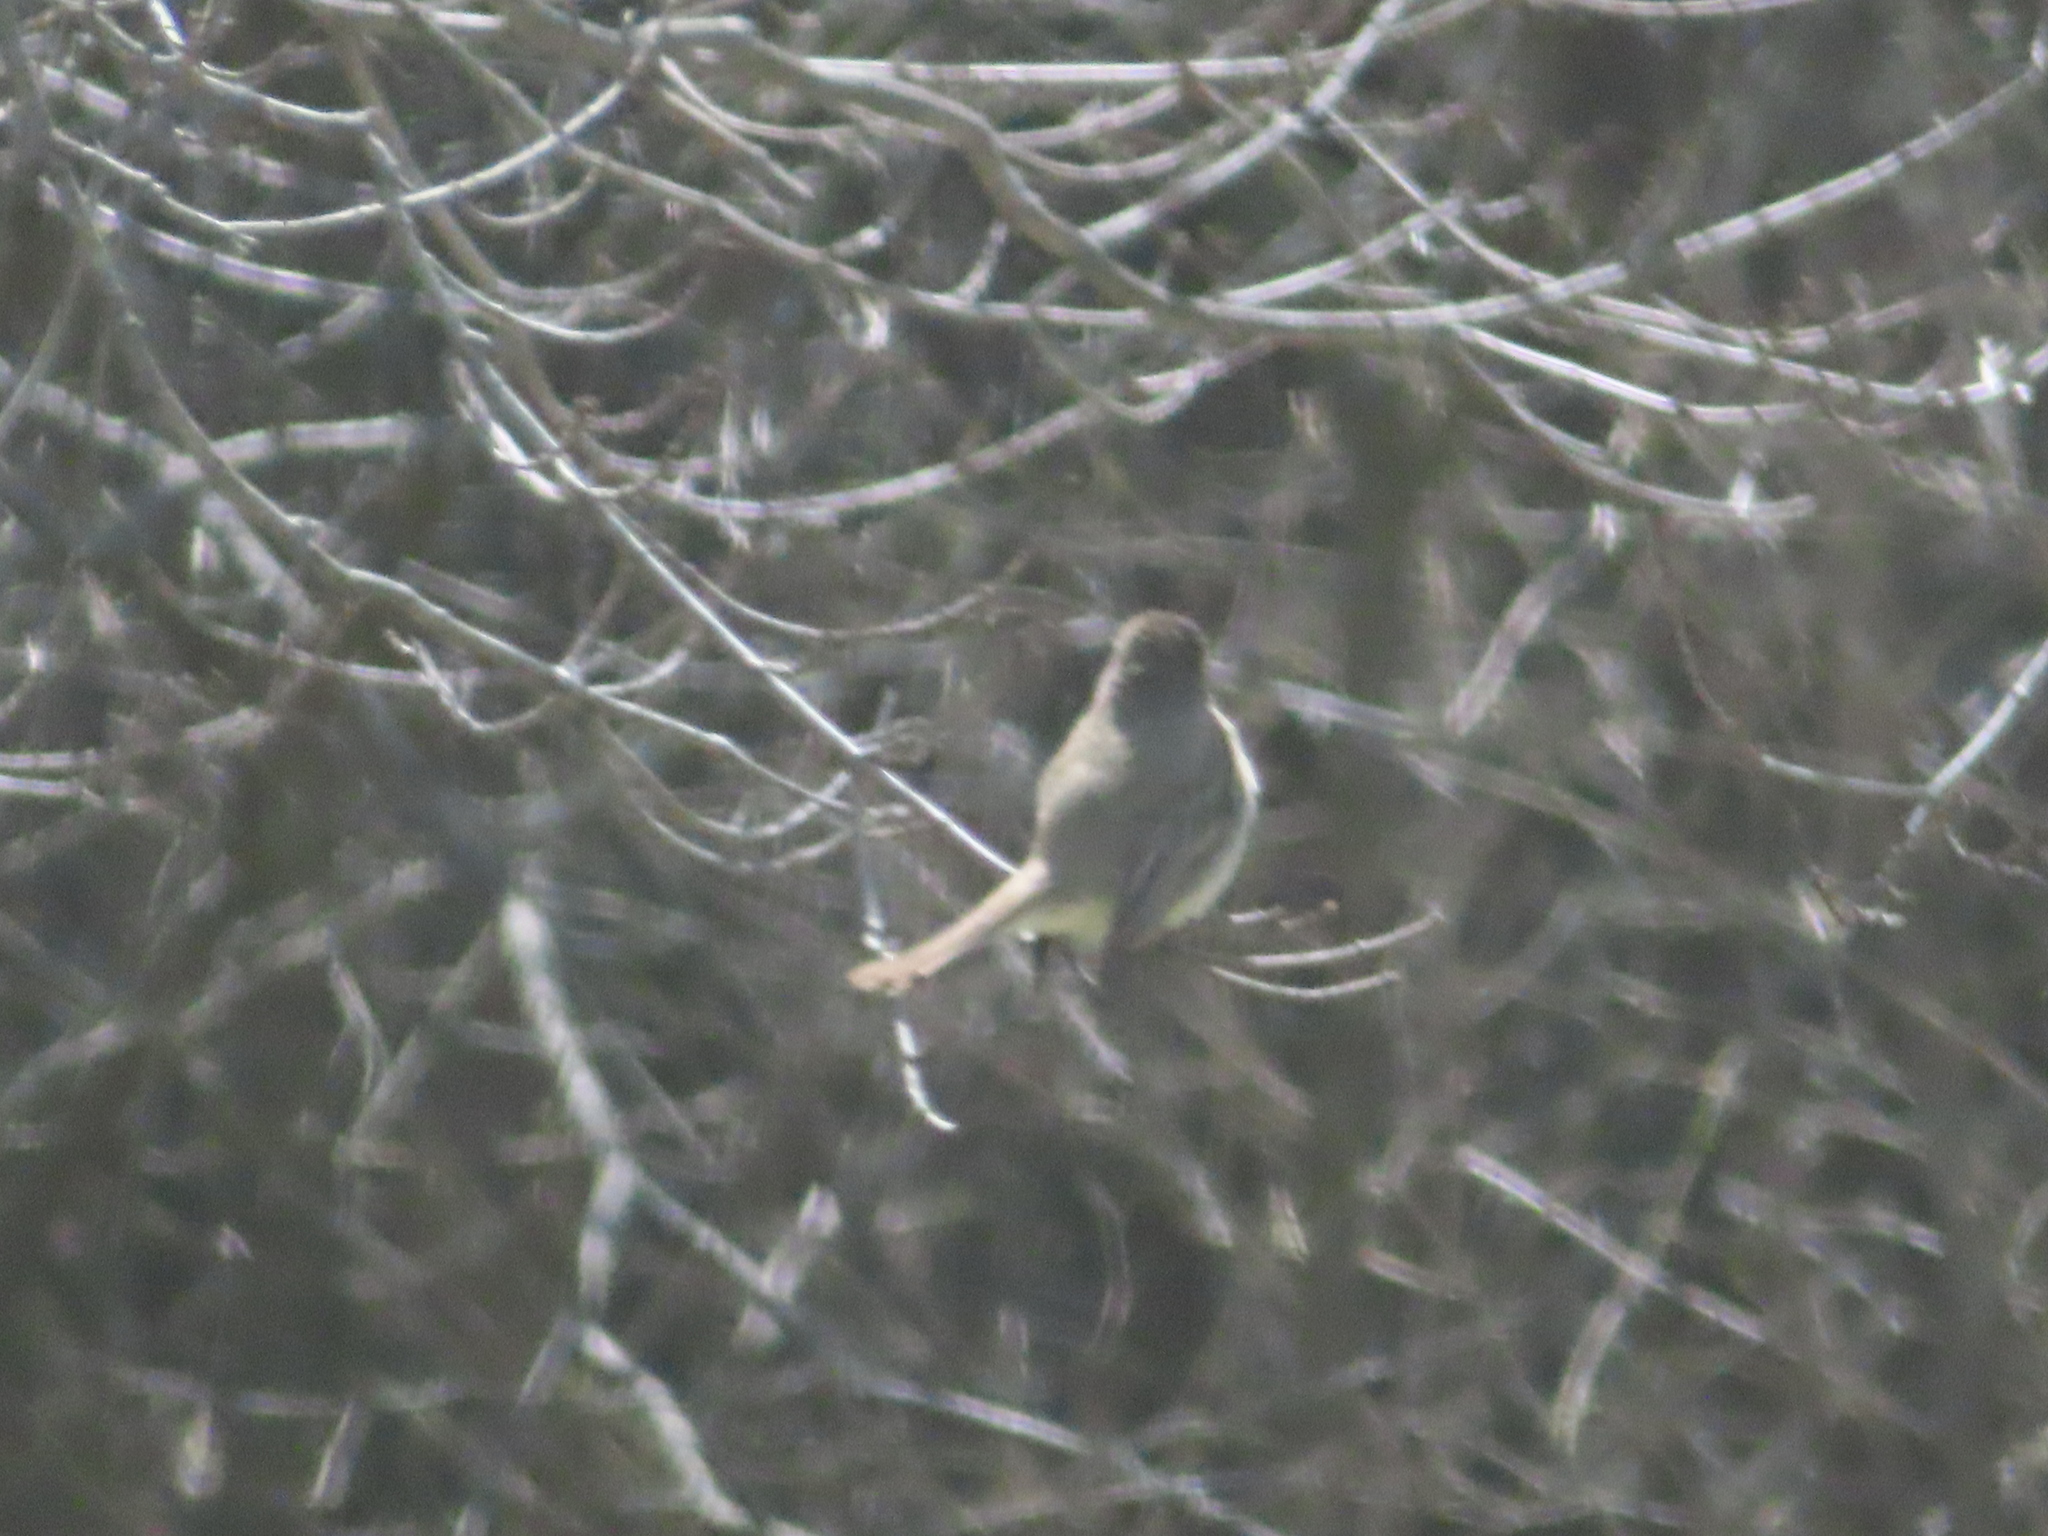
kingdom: Animalia
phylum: Chordata
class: Aves
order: Passeriformes
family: Tyrannidae
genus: Sayornis
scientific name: Sayornis phoebe
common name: Eastern phoebe
